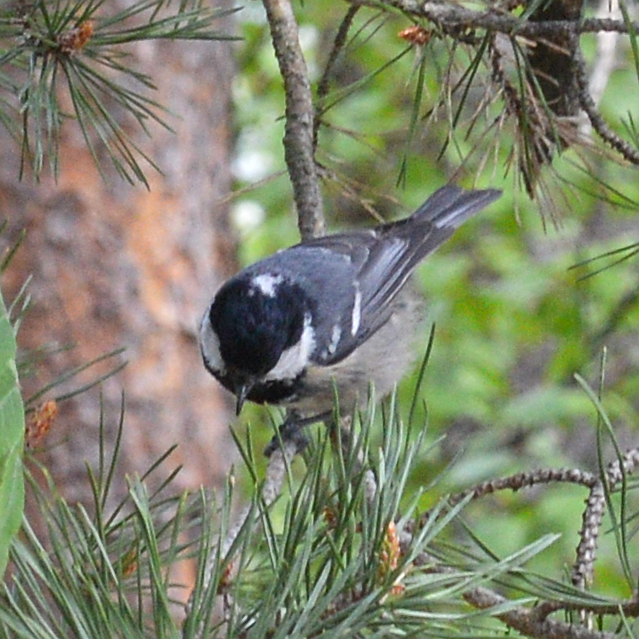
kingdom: Animalia
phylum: Chordata
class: Aves
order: Passeriformes
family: Paridae
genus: Periparus
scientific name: Periparus ater
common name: Coal tit
